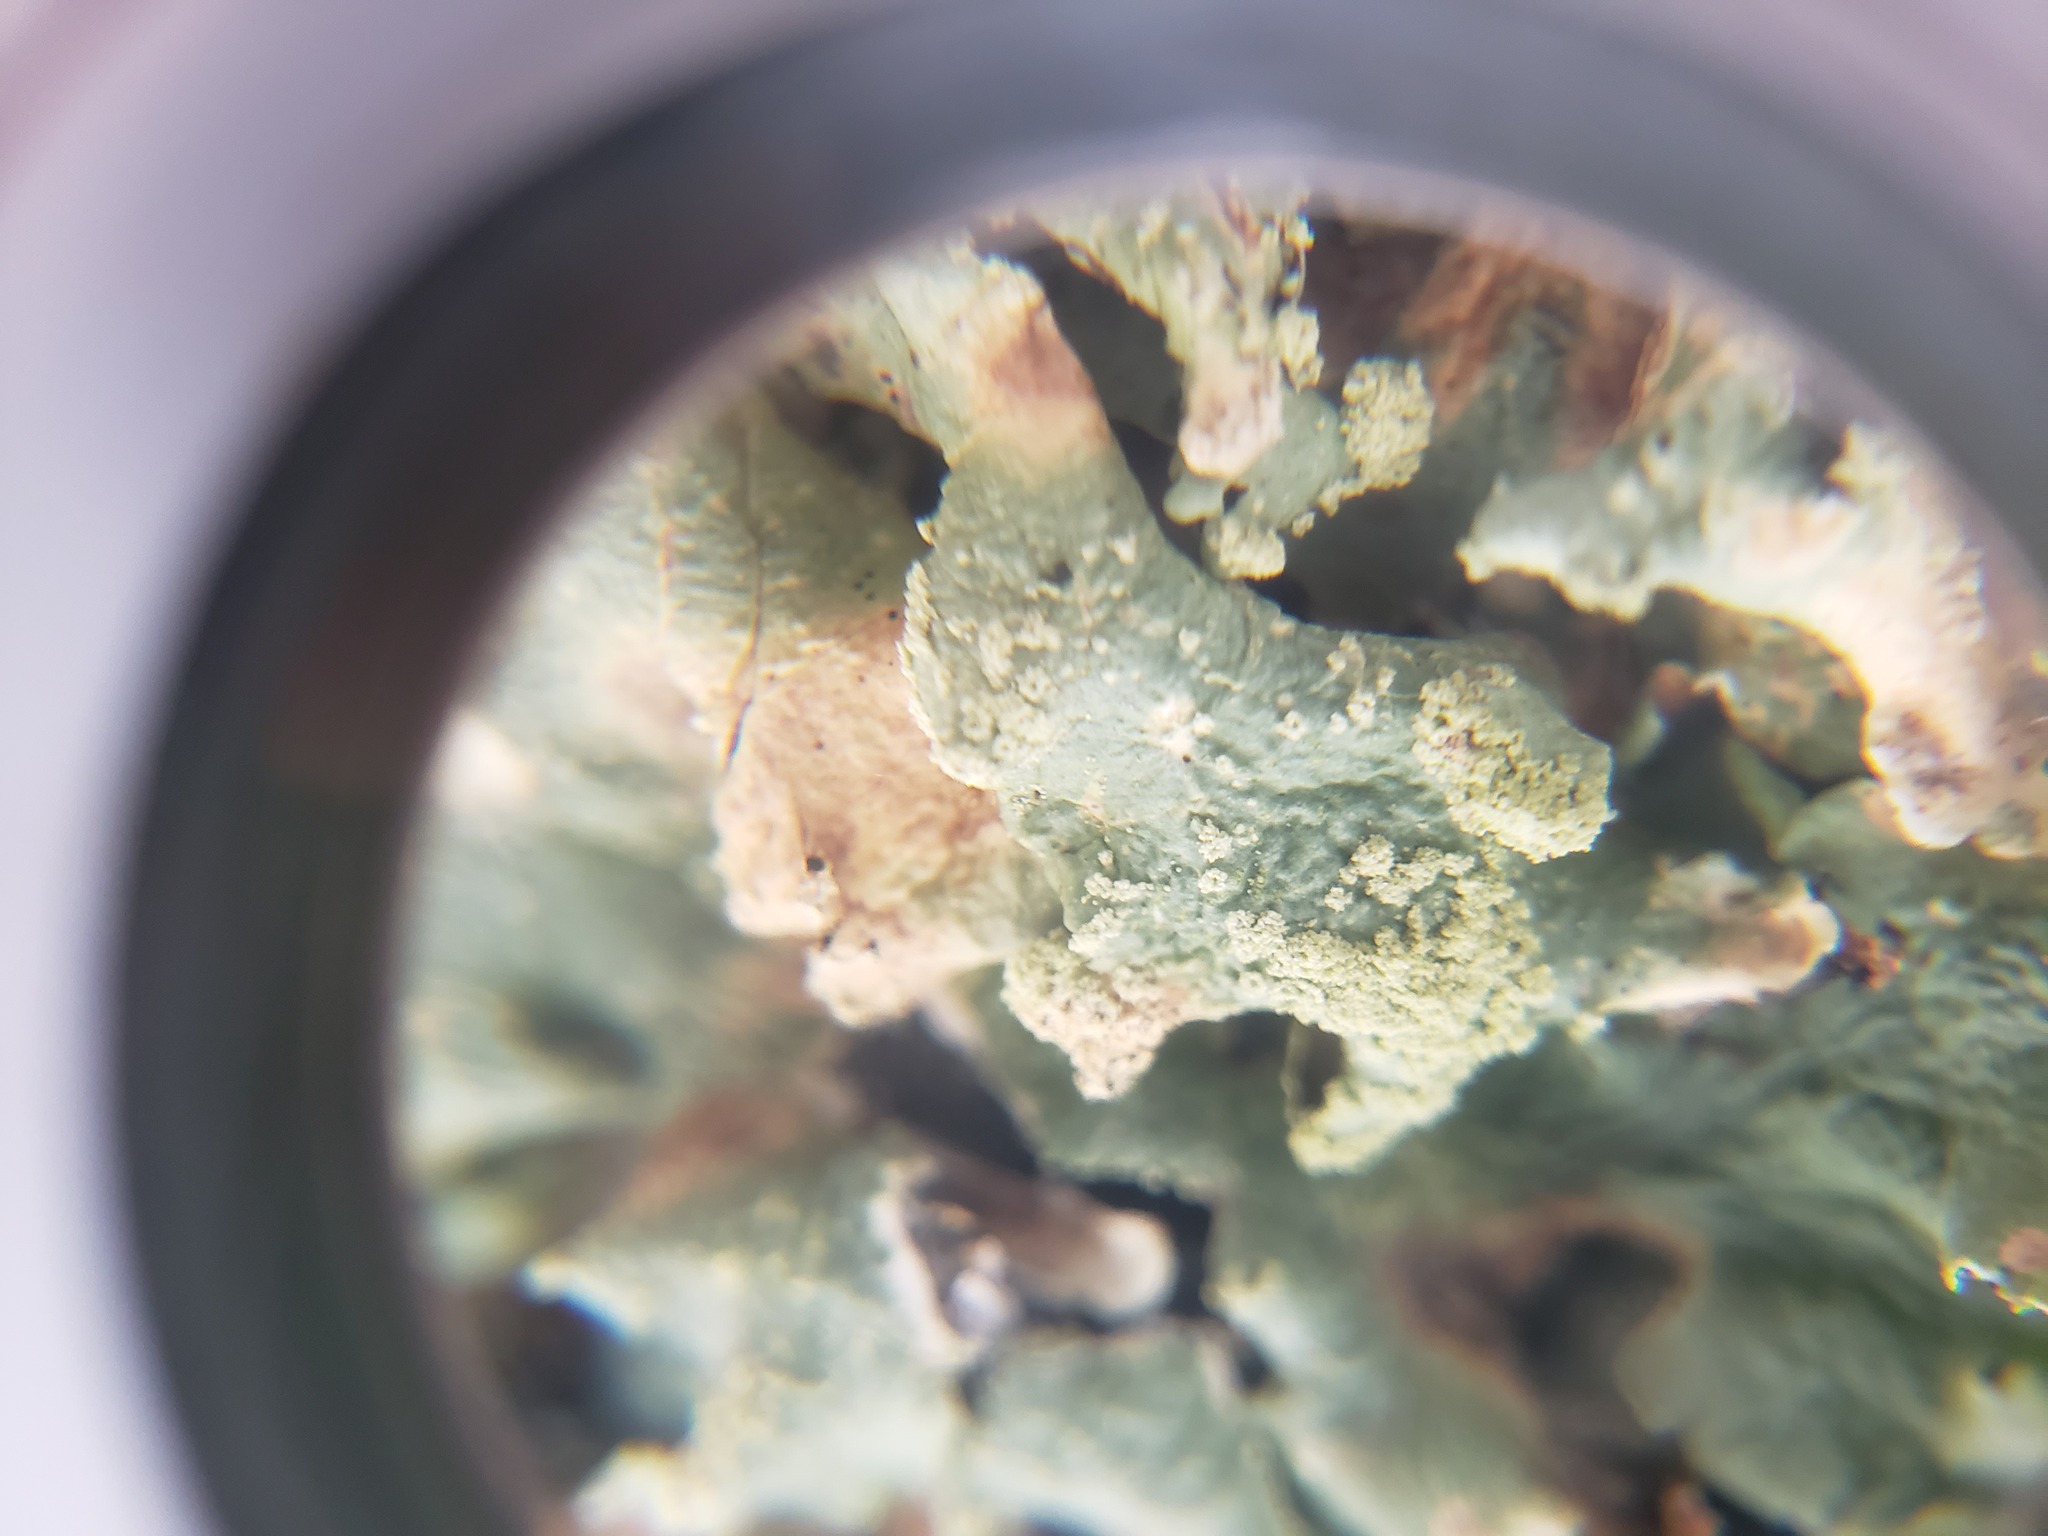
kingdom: Fungi
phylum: Ascomycota
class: Lecanoromycetes
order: Lecanorales
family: Parmeliaceae
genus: Flavoparmelia
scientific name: Flavoparmelia caperata
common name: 40-mile per hour lichen
